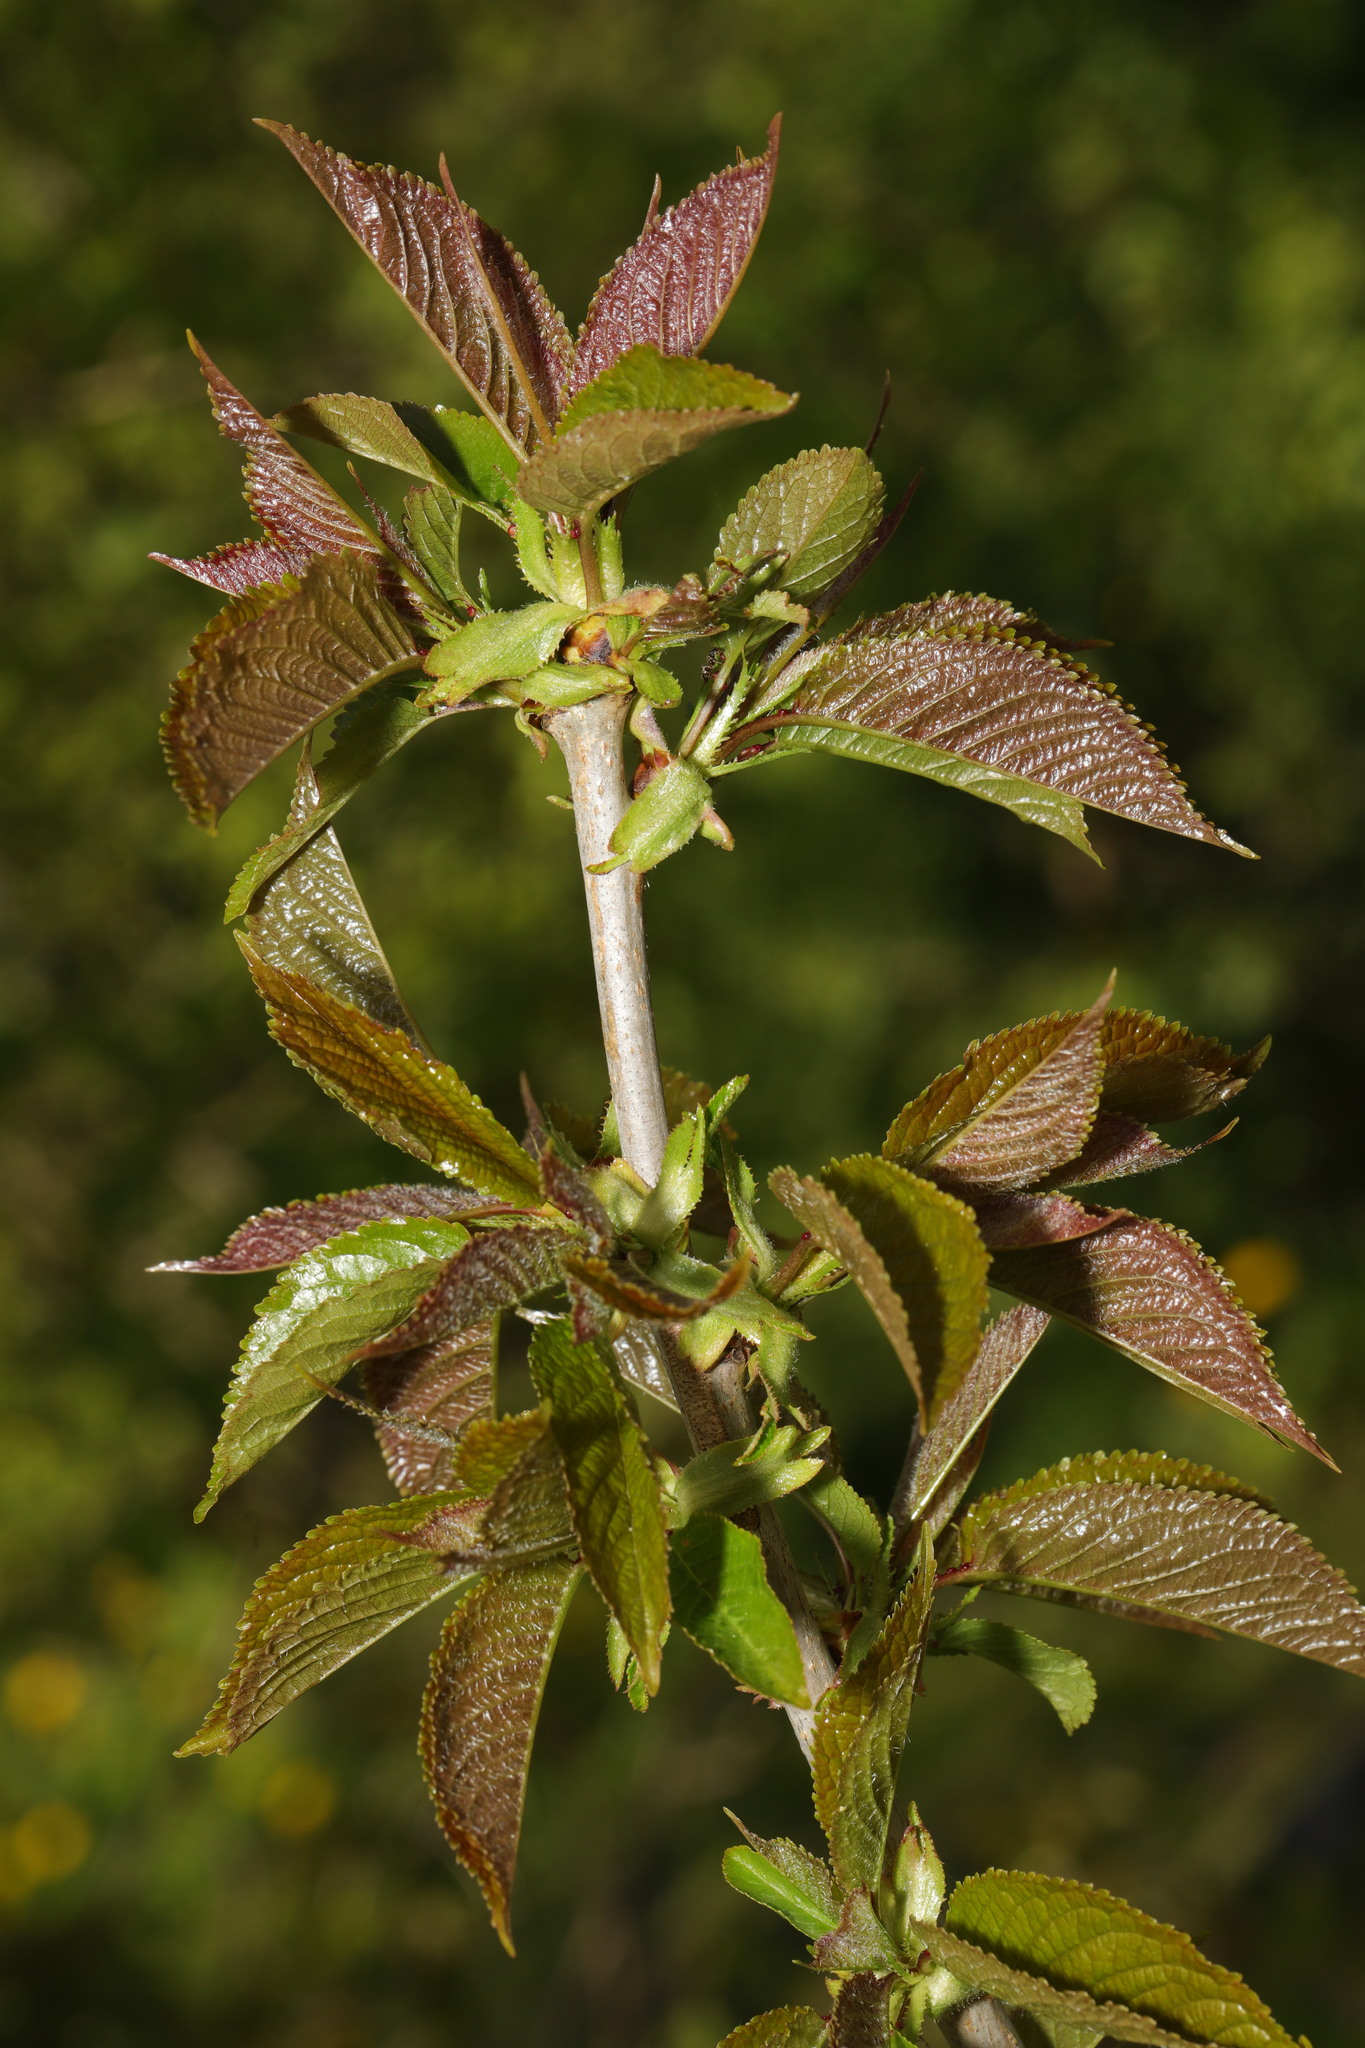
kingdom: Plantae
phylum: Tracheophyta
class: Magnoliopsida
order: Rosales
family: Rosaceae
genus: Prunus
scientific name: Prunus avium
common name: Sweet cherry
